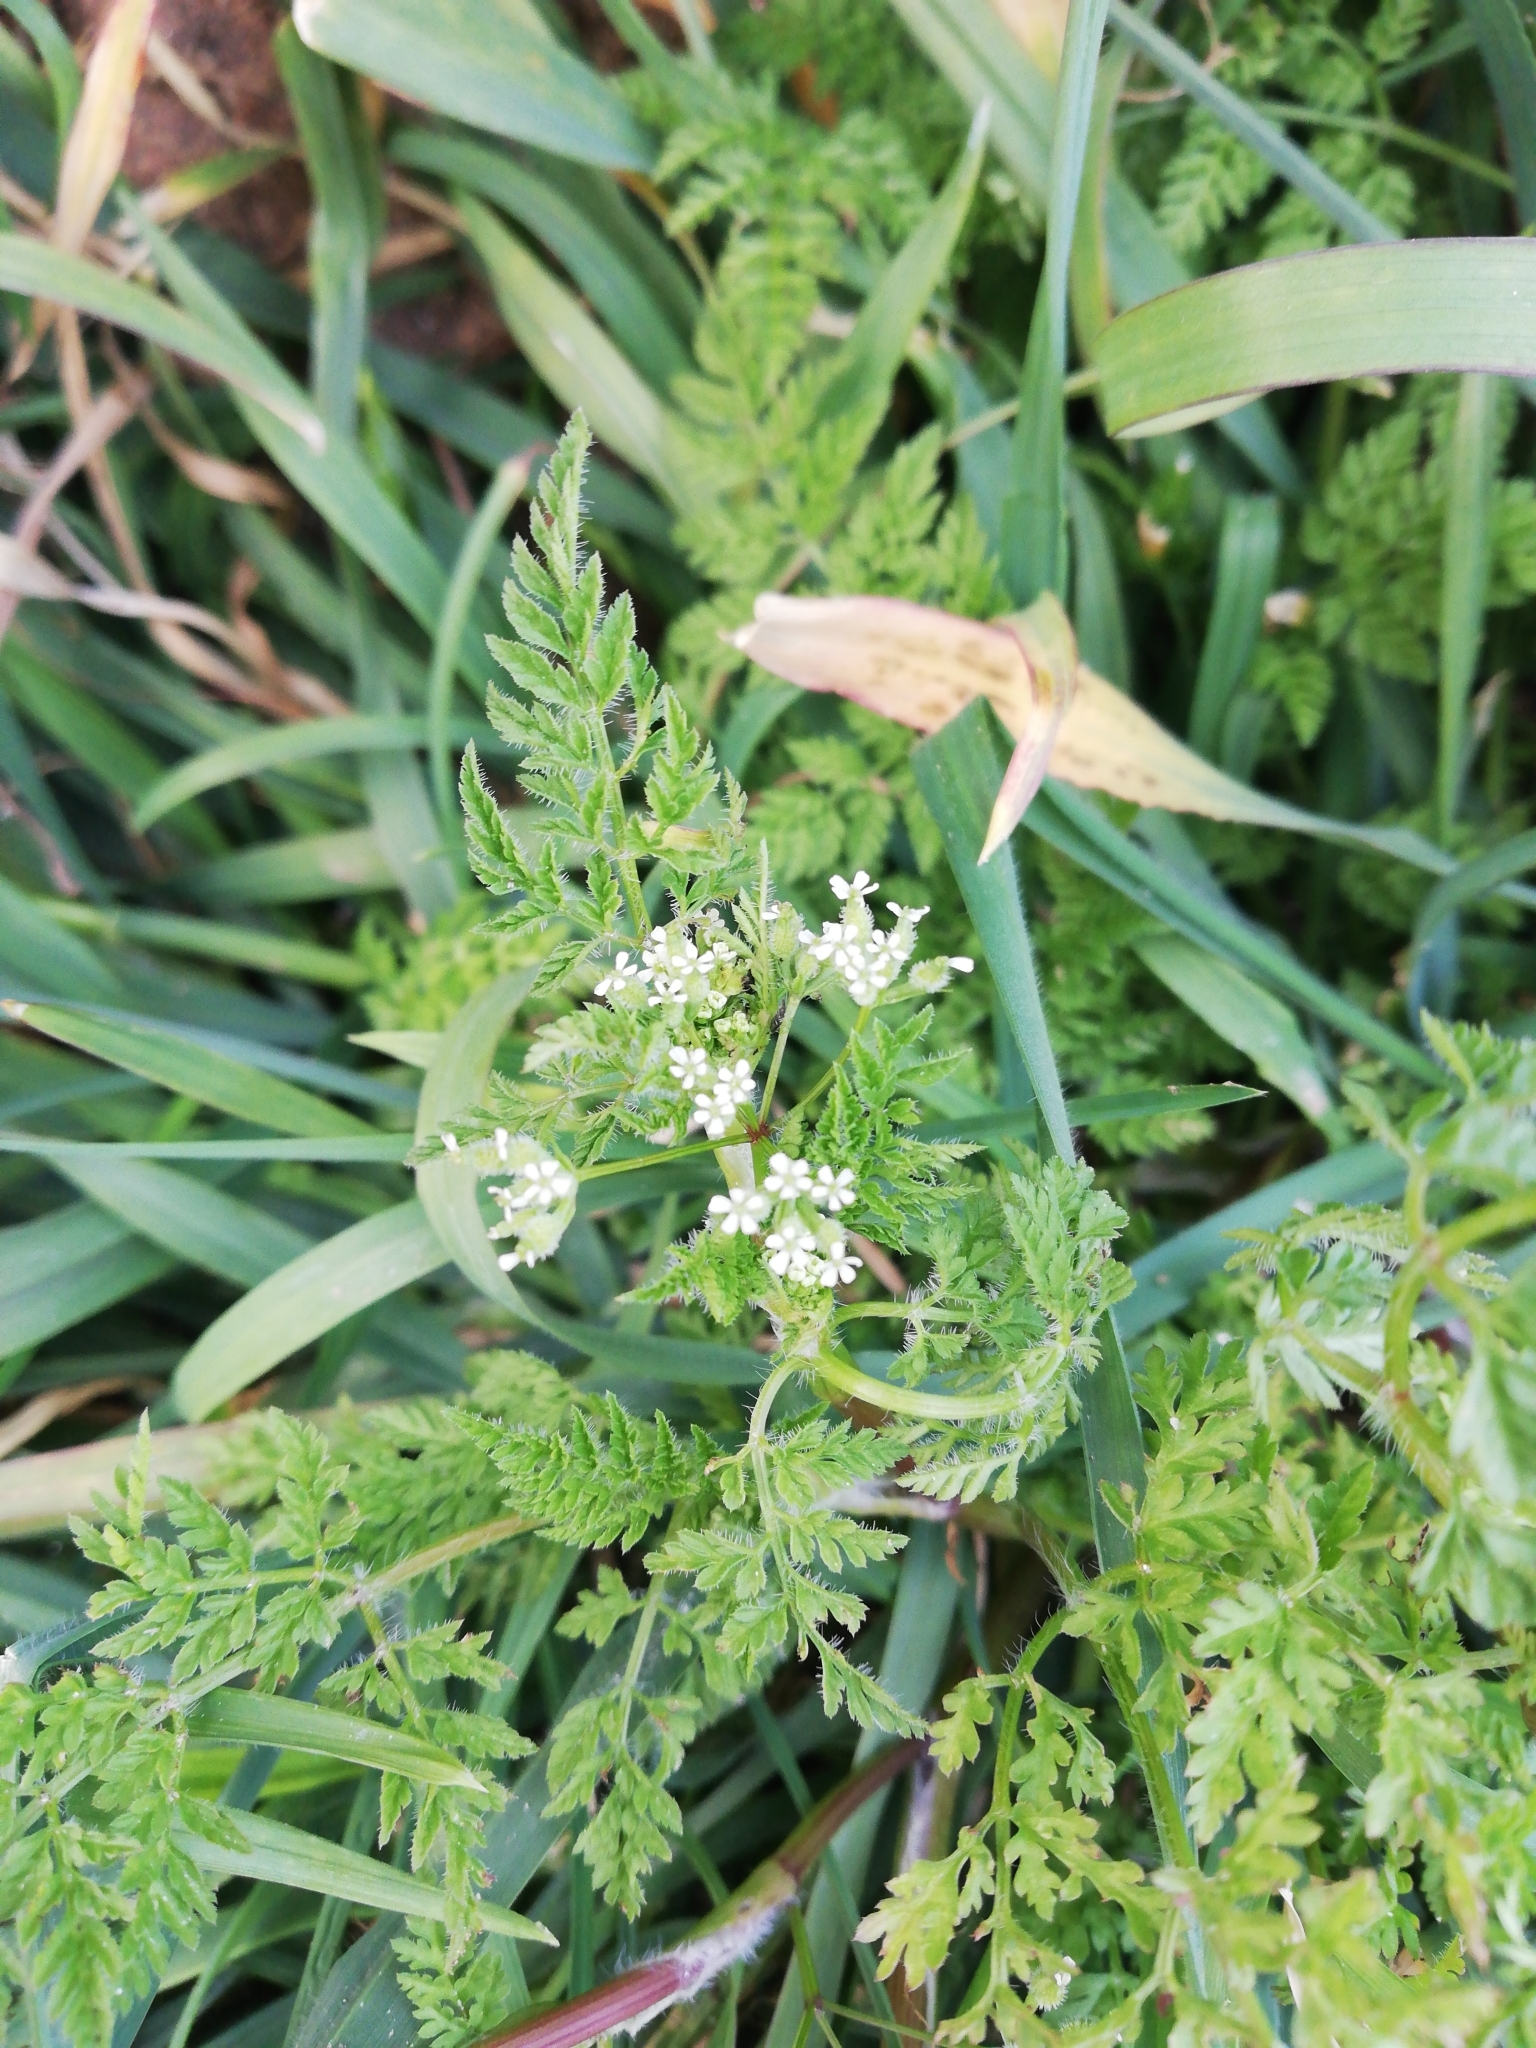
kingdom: Plantae
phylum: Tracheophyta
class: Magnoliopsida
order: Apiales
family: Apiaceae
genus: Anthriscus
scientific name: Anthriscus caucalis
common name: Bur chervil
